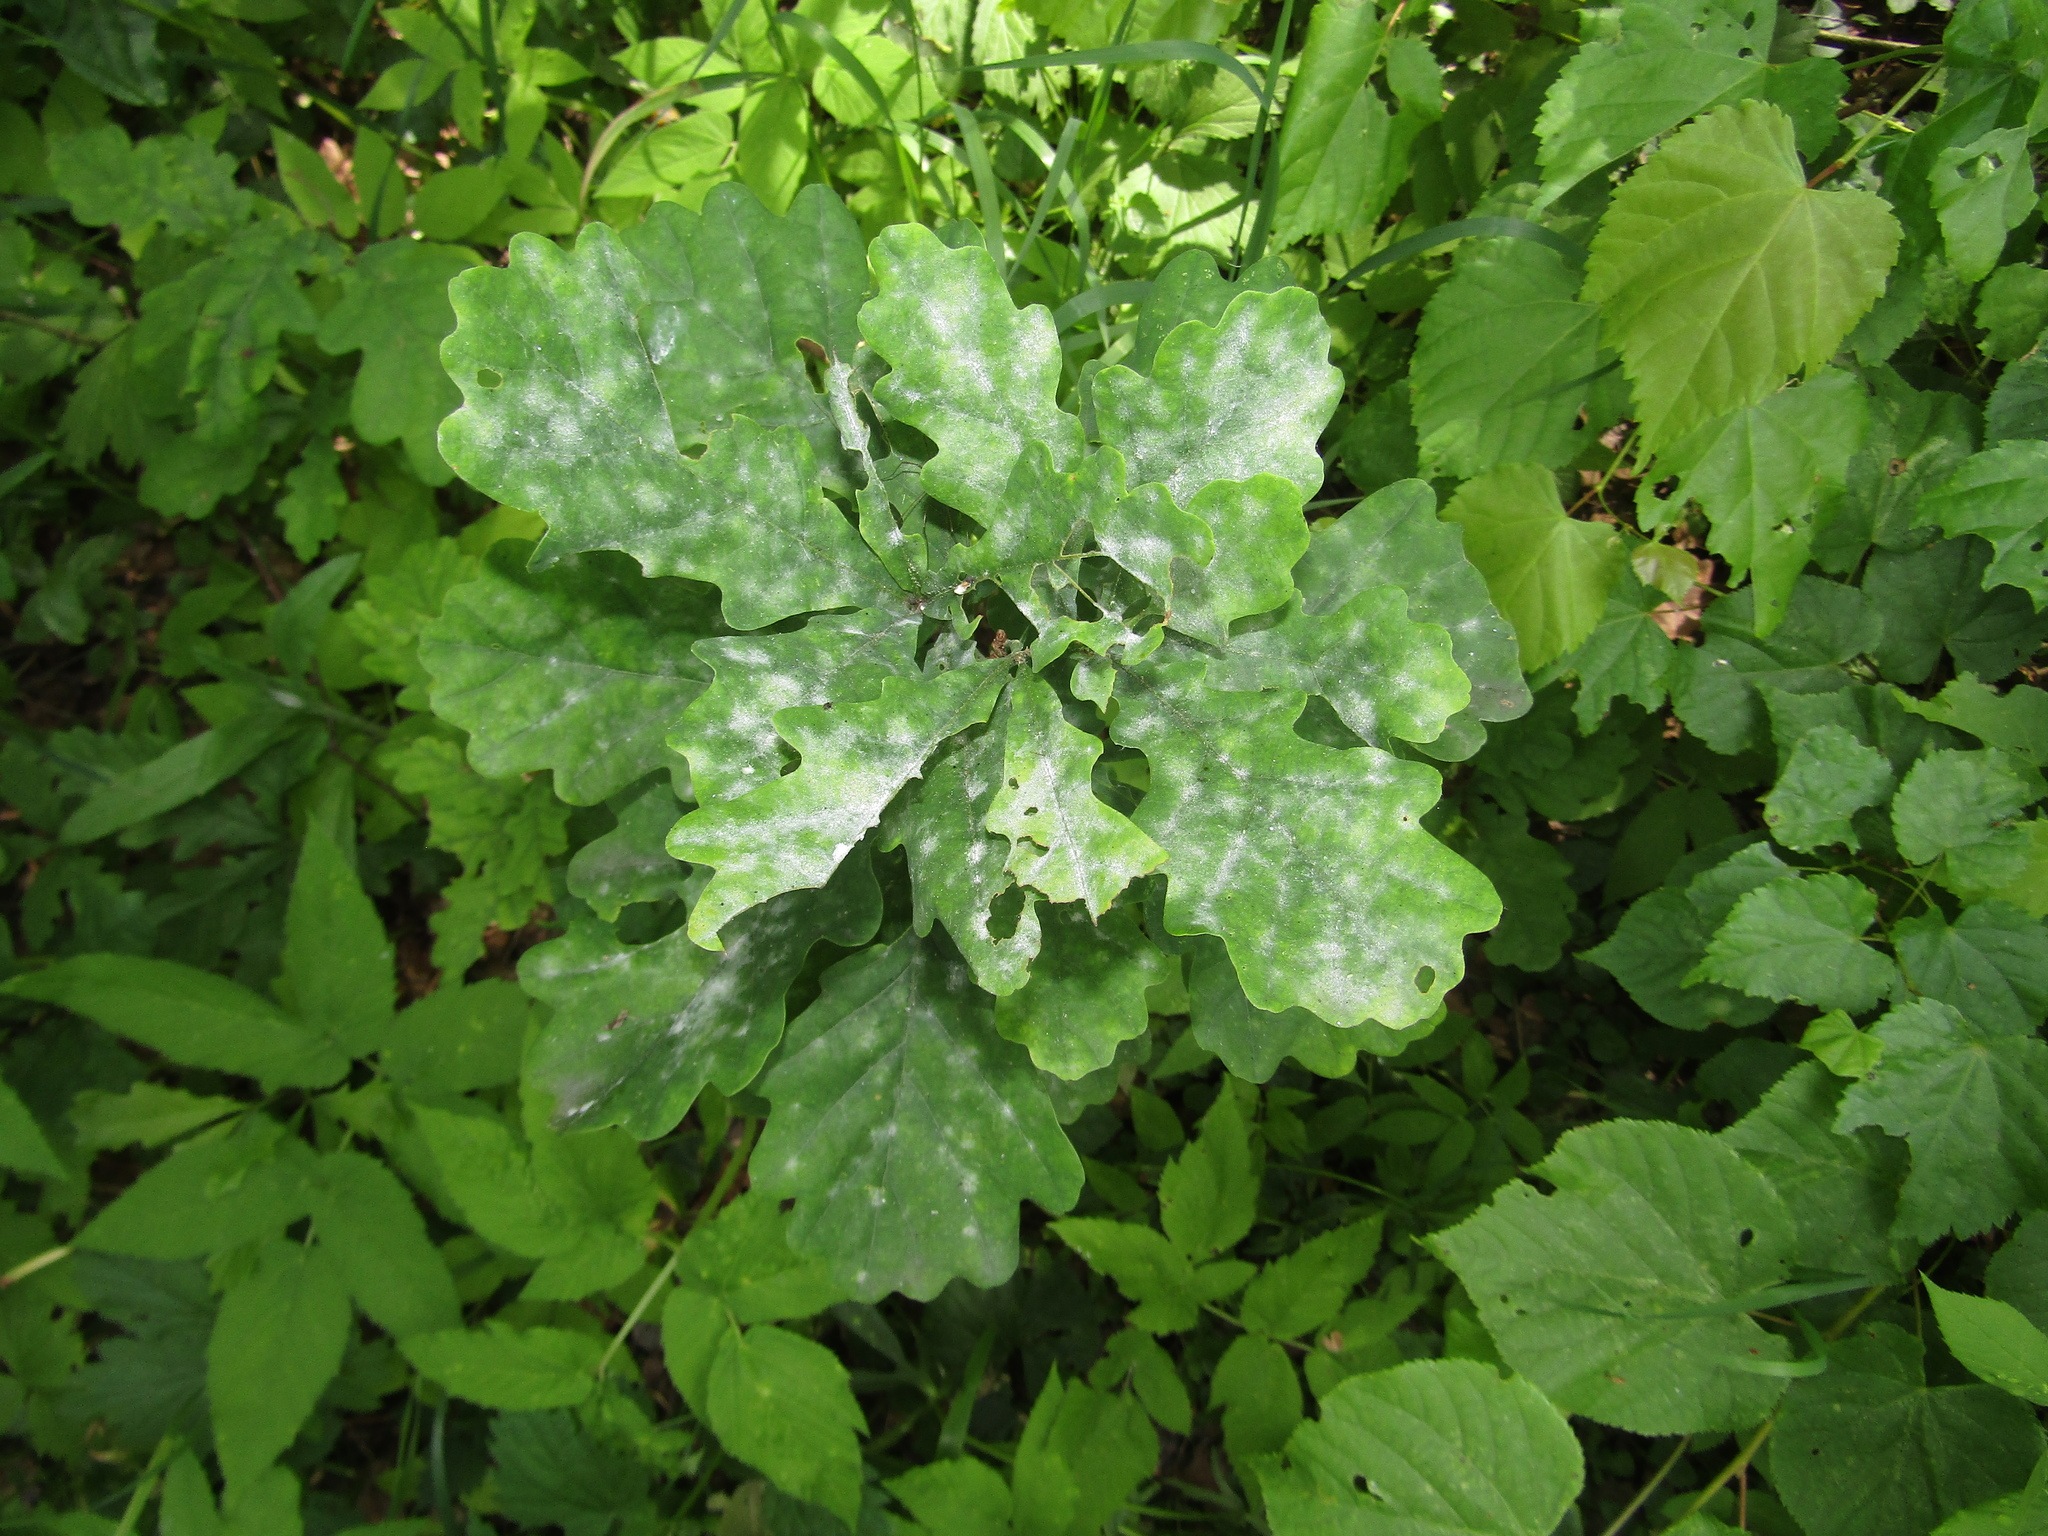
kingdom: Plantae
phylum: Tracheophyta
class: Magnoliopsida
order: Fagales
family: Fagaceae
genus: Quercus
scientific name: Quercus robur
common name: Pedunculate oak
